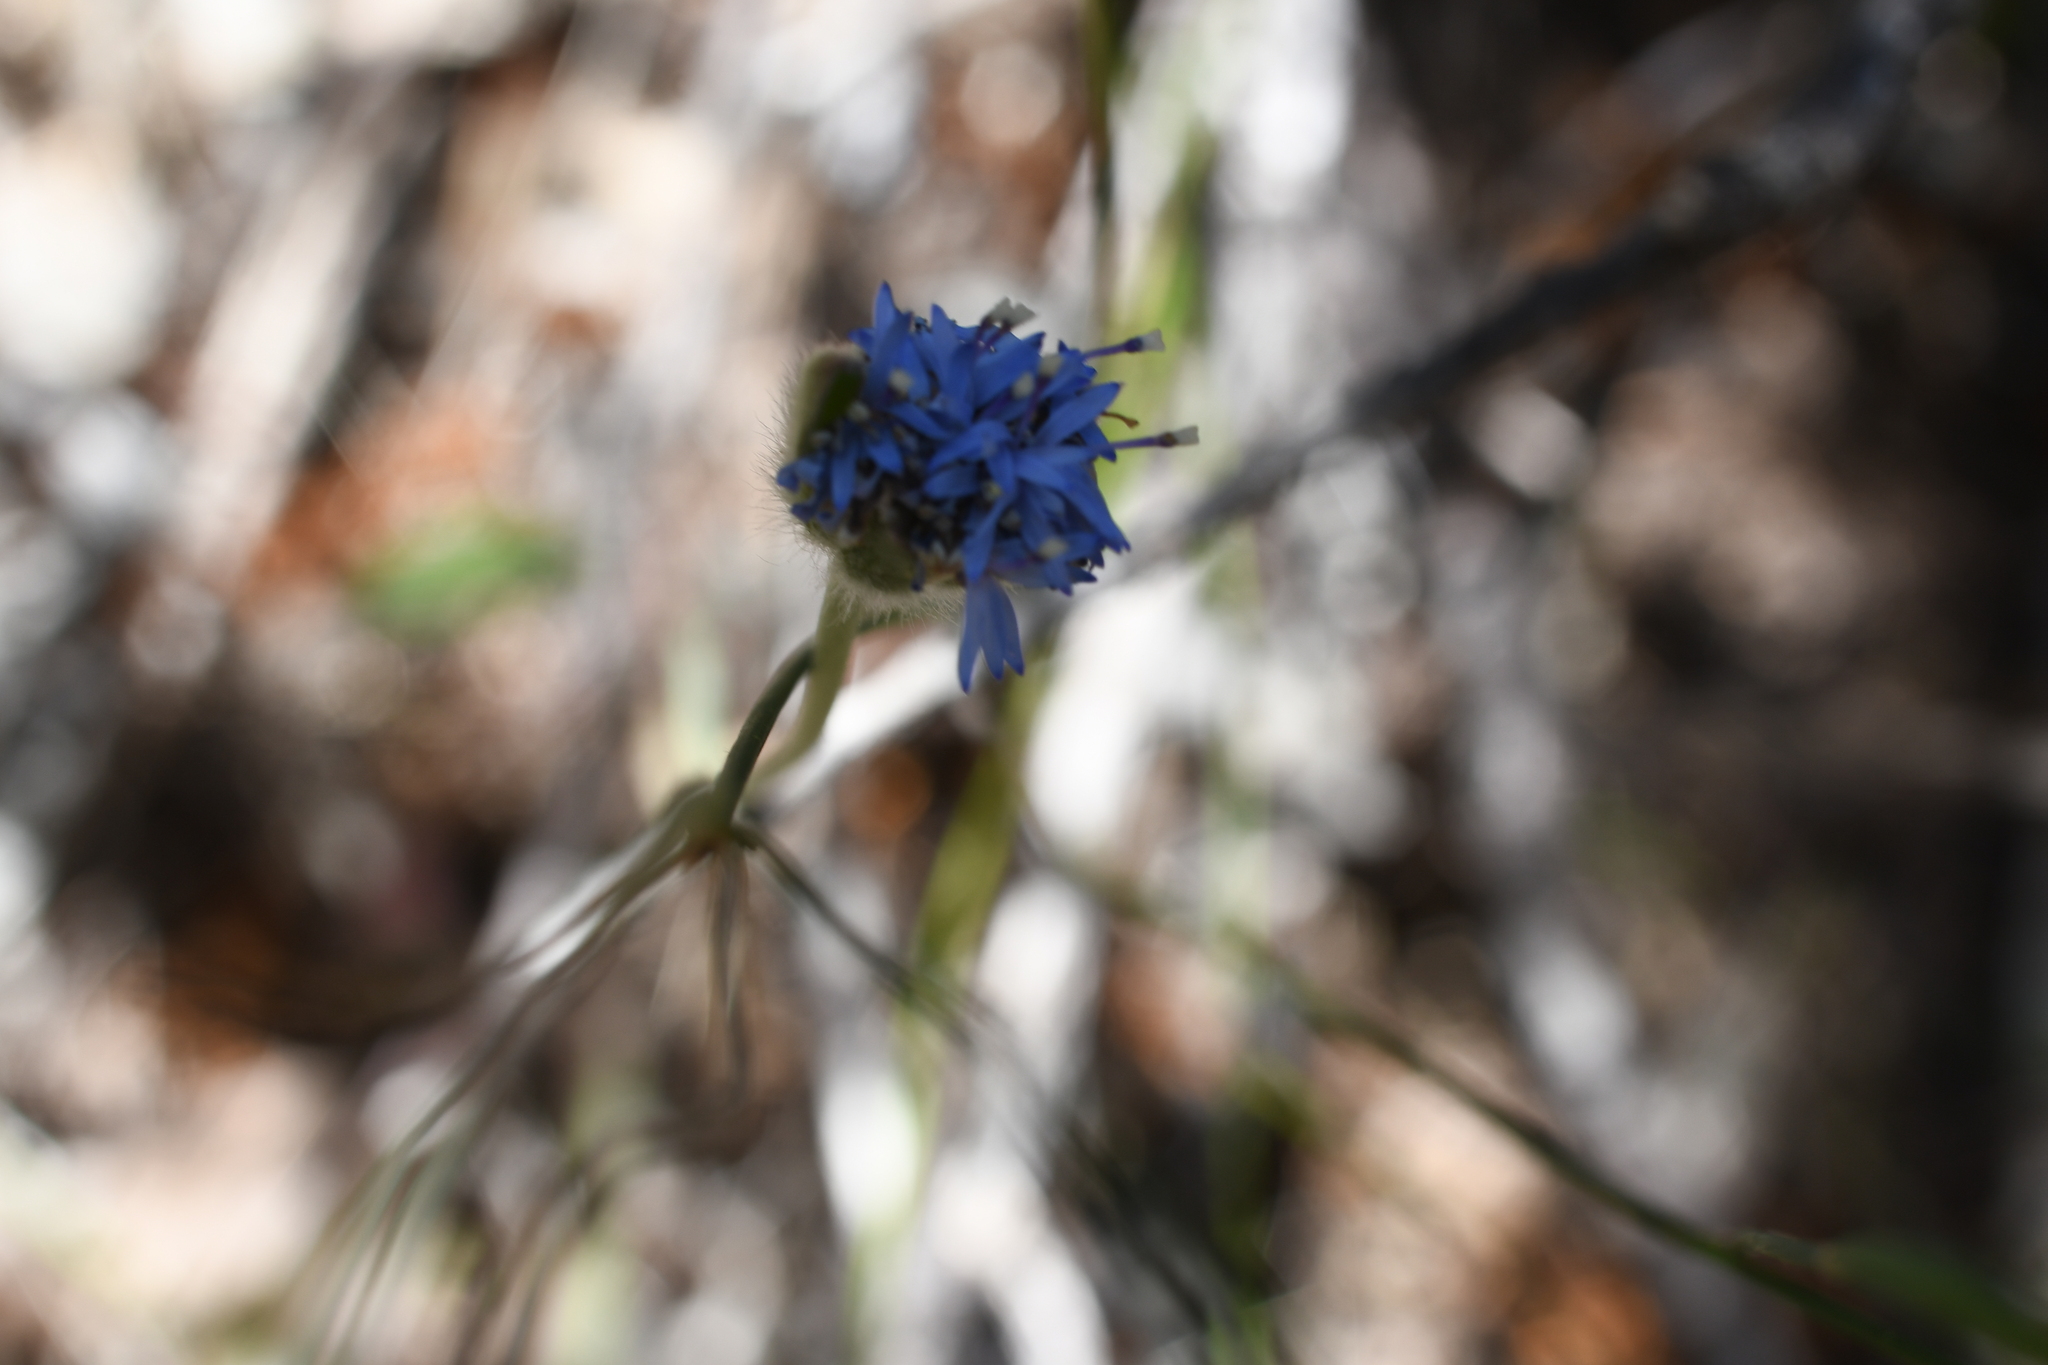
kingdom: Plantae
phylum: Tracheophyta
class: Magnoliopsida
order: Asterales
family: Goodeniaceae
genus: Brunonia
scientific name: Brunonia australis
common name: Blue pincushion
